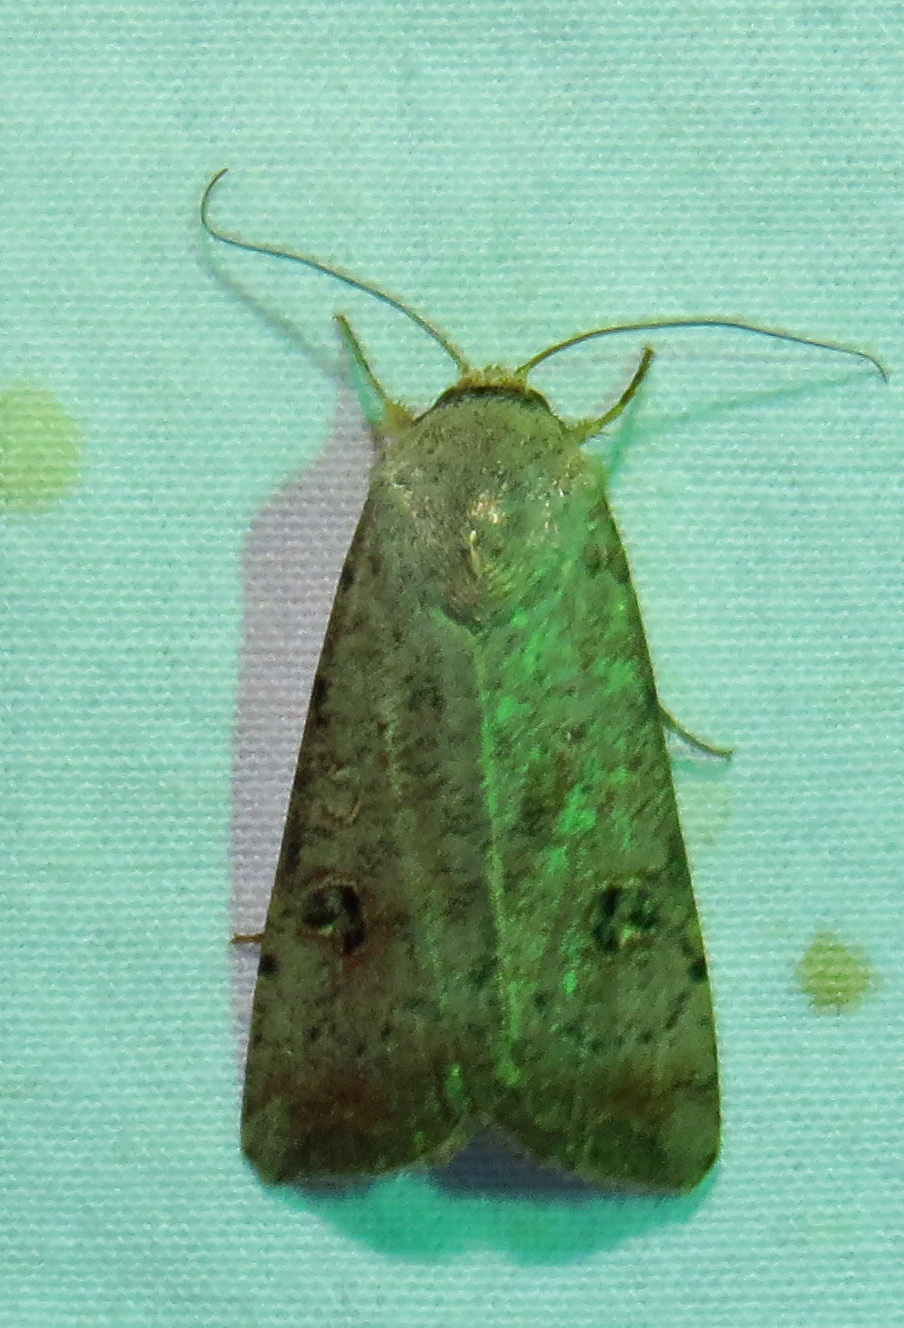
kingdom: Animalia
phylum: Arthropoda
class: Insecta
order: Lepidoptera
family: Noctuidae
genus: Anicla
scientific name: Anicla infecta
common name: Green cutworm
